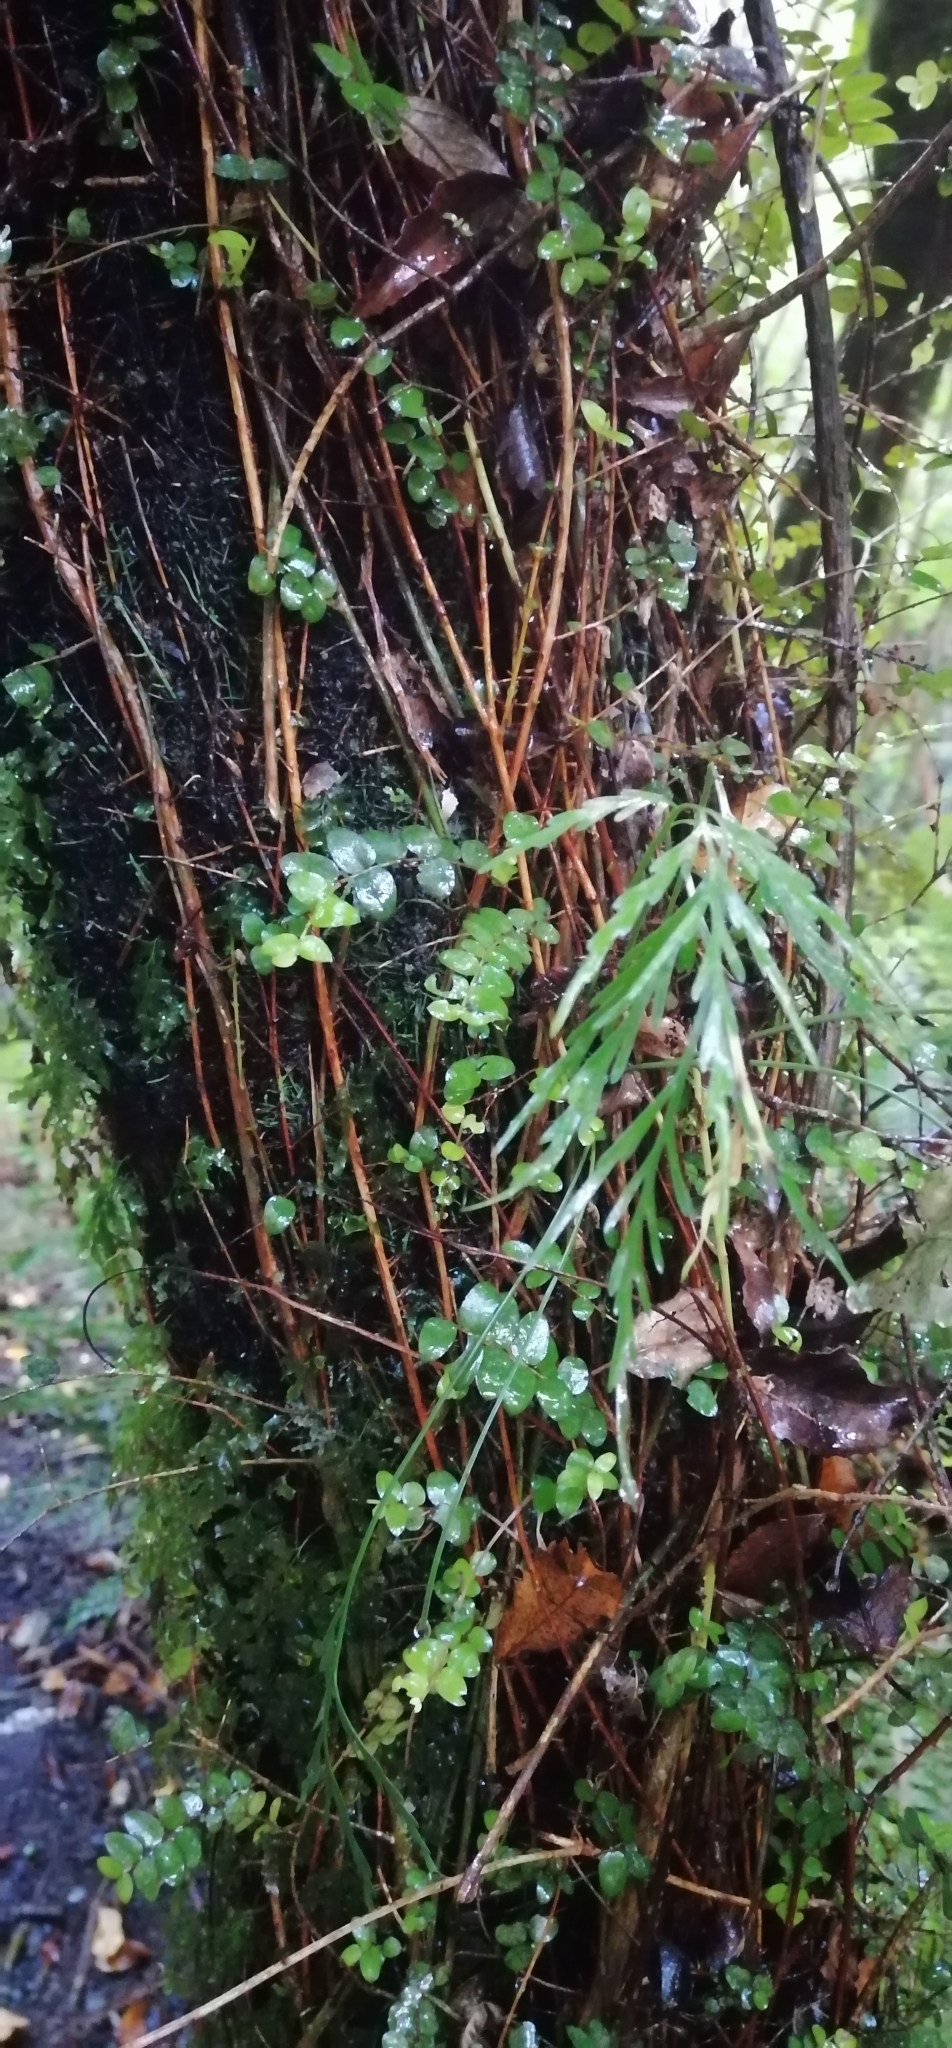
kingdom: Plantae
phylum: Tracheophyta
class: Polypodiopsida
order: Polypodiales
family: Aspleniaceae
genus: Asplenium
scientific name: Asplenium flaccidum
